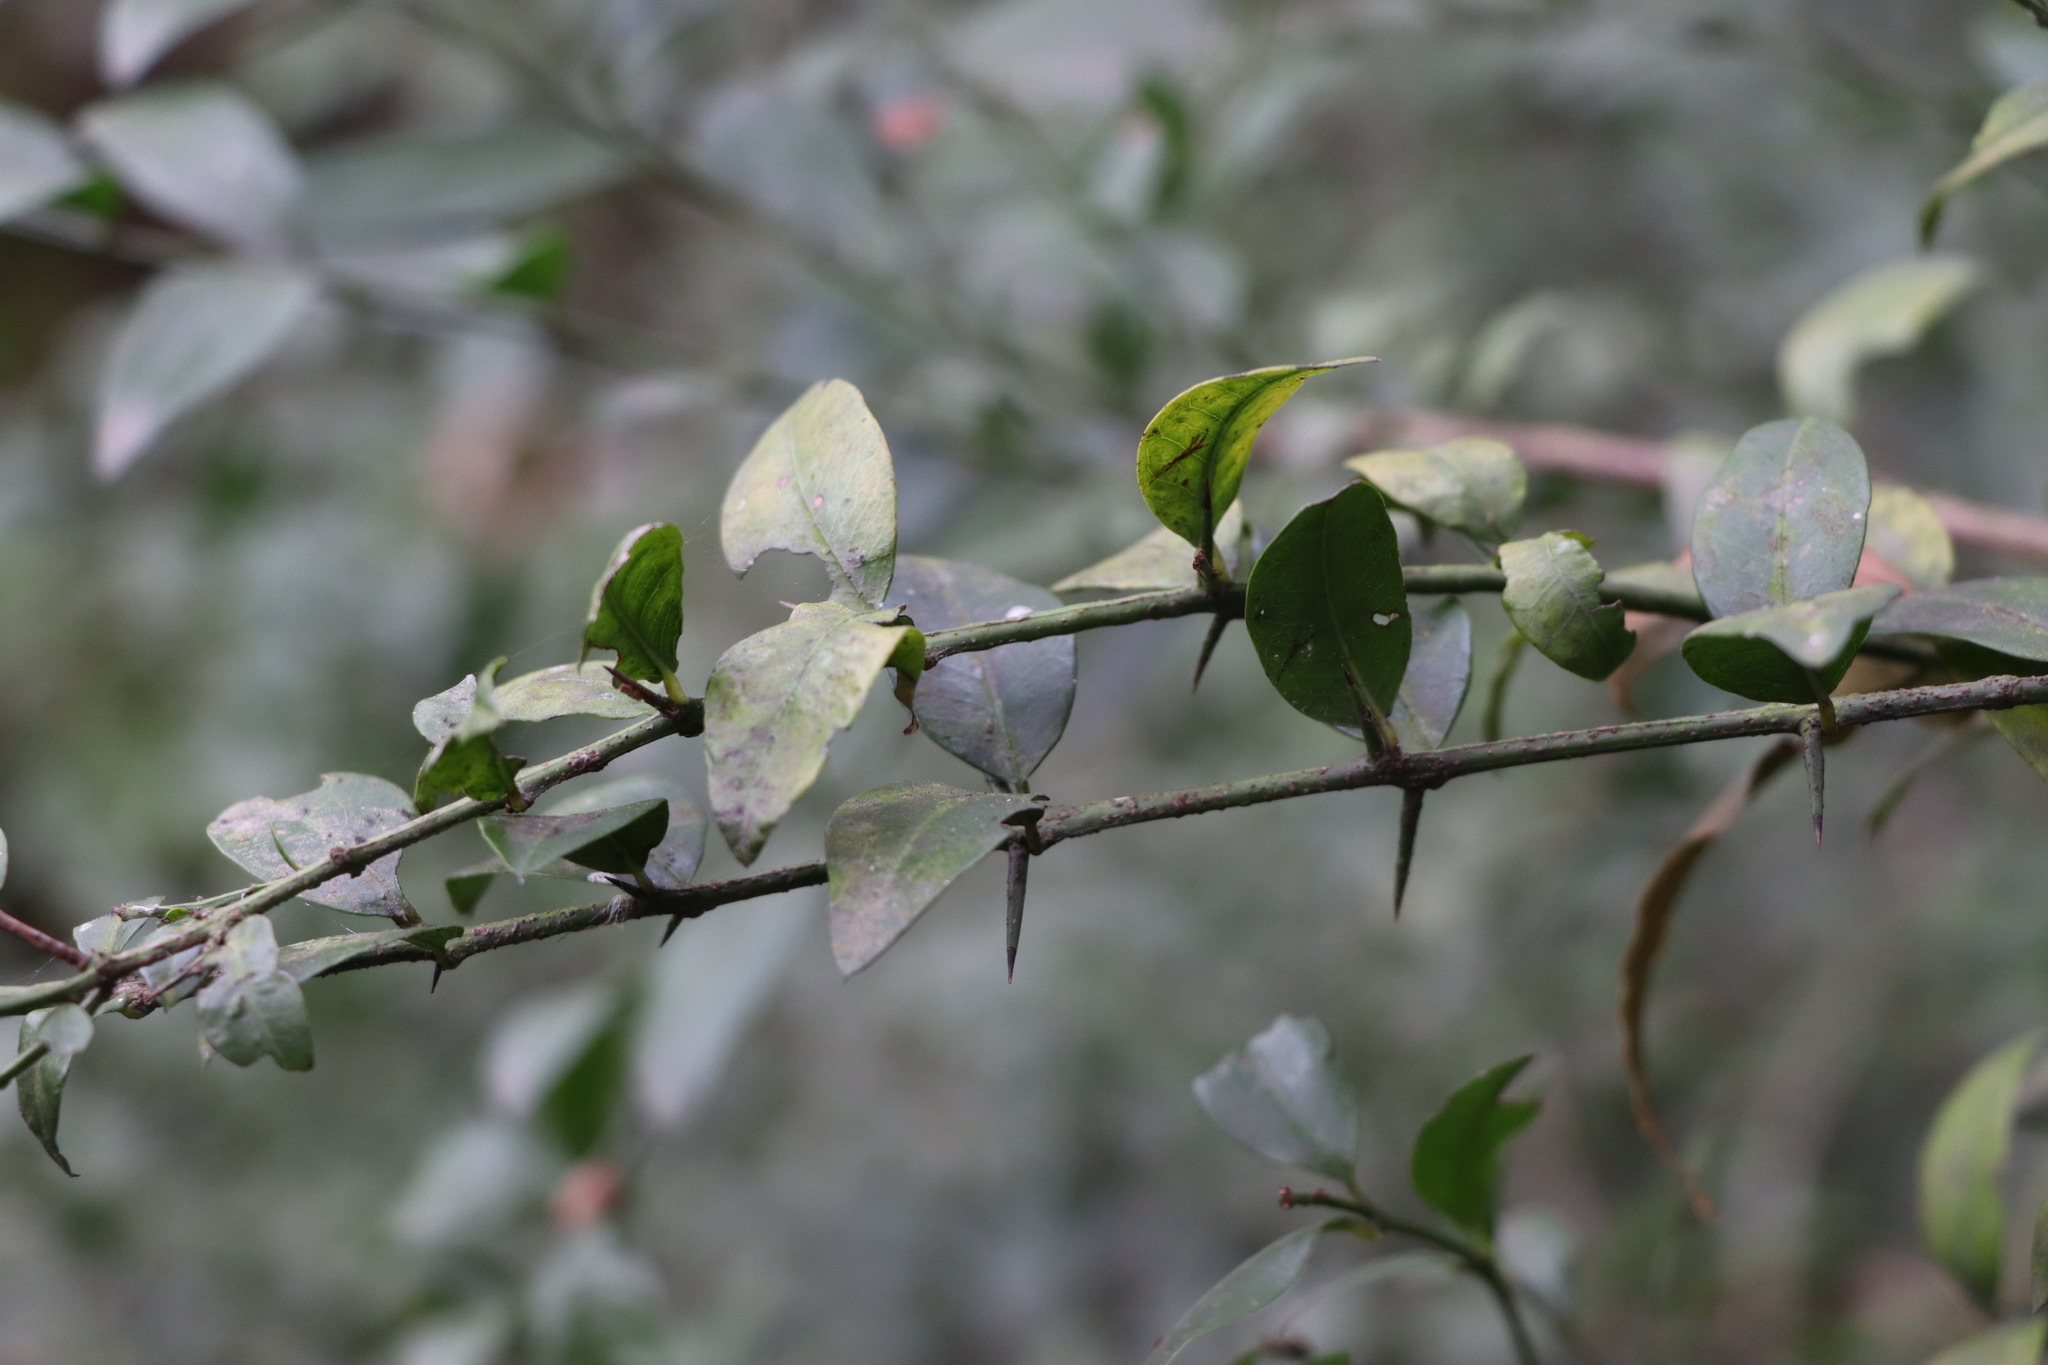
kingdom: Plantae
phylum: Tracheophyta
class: Magnoliopsida
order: Rosales
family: Rhamnaceae
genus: Scutia
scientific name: Scutia buxifolia
